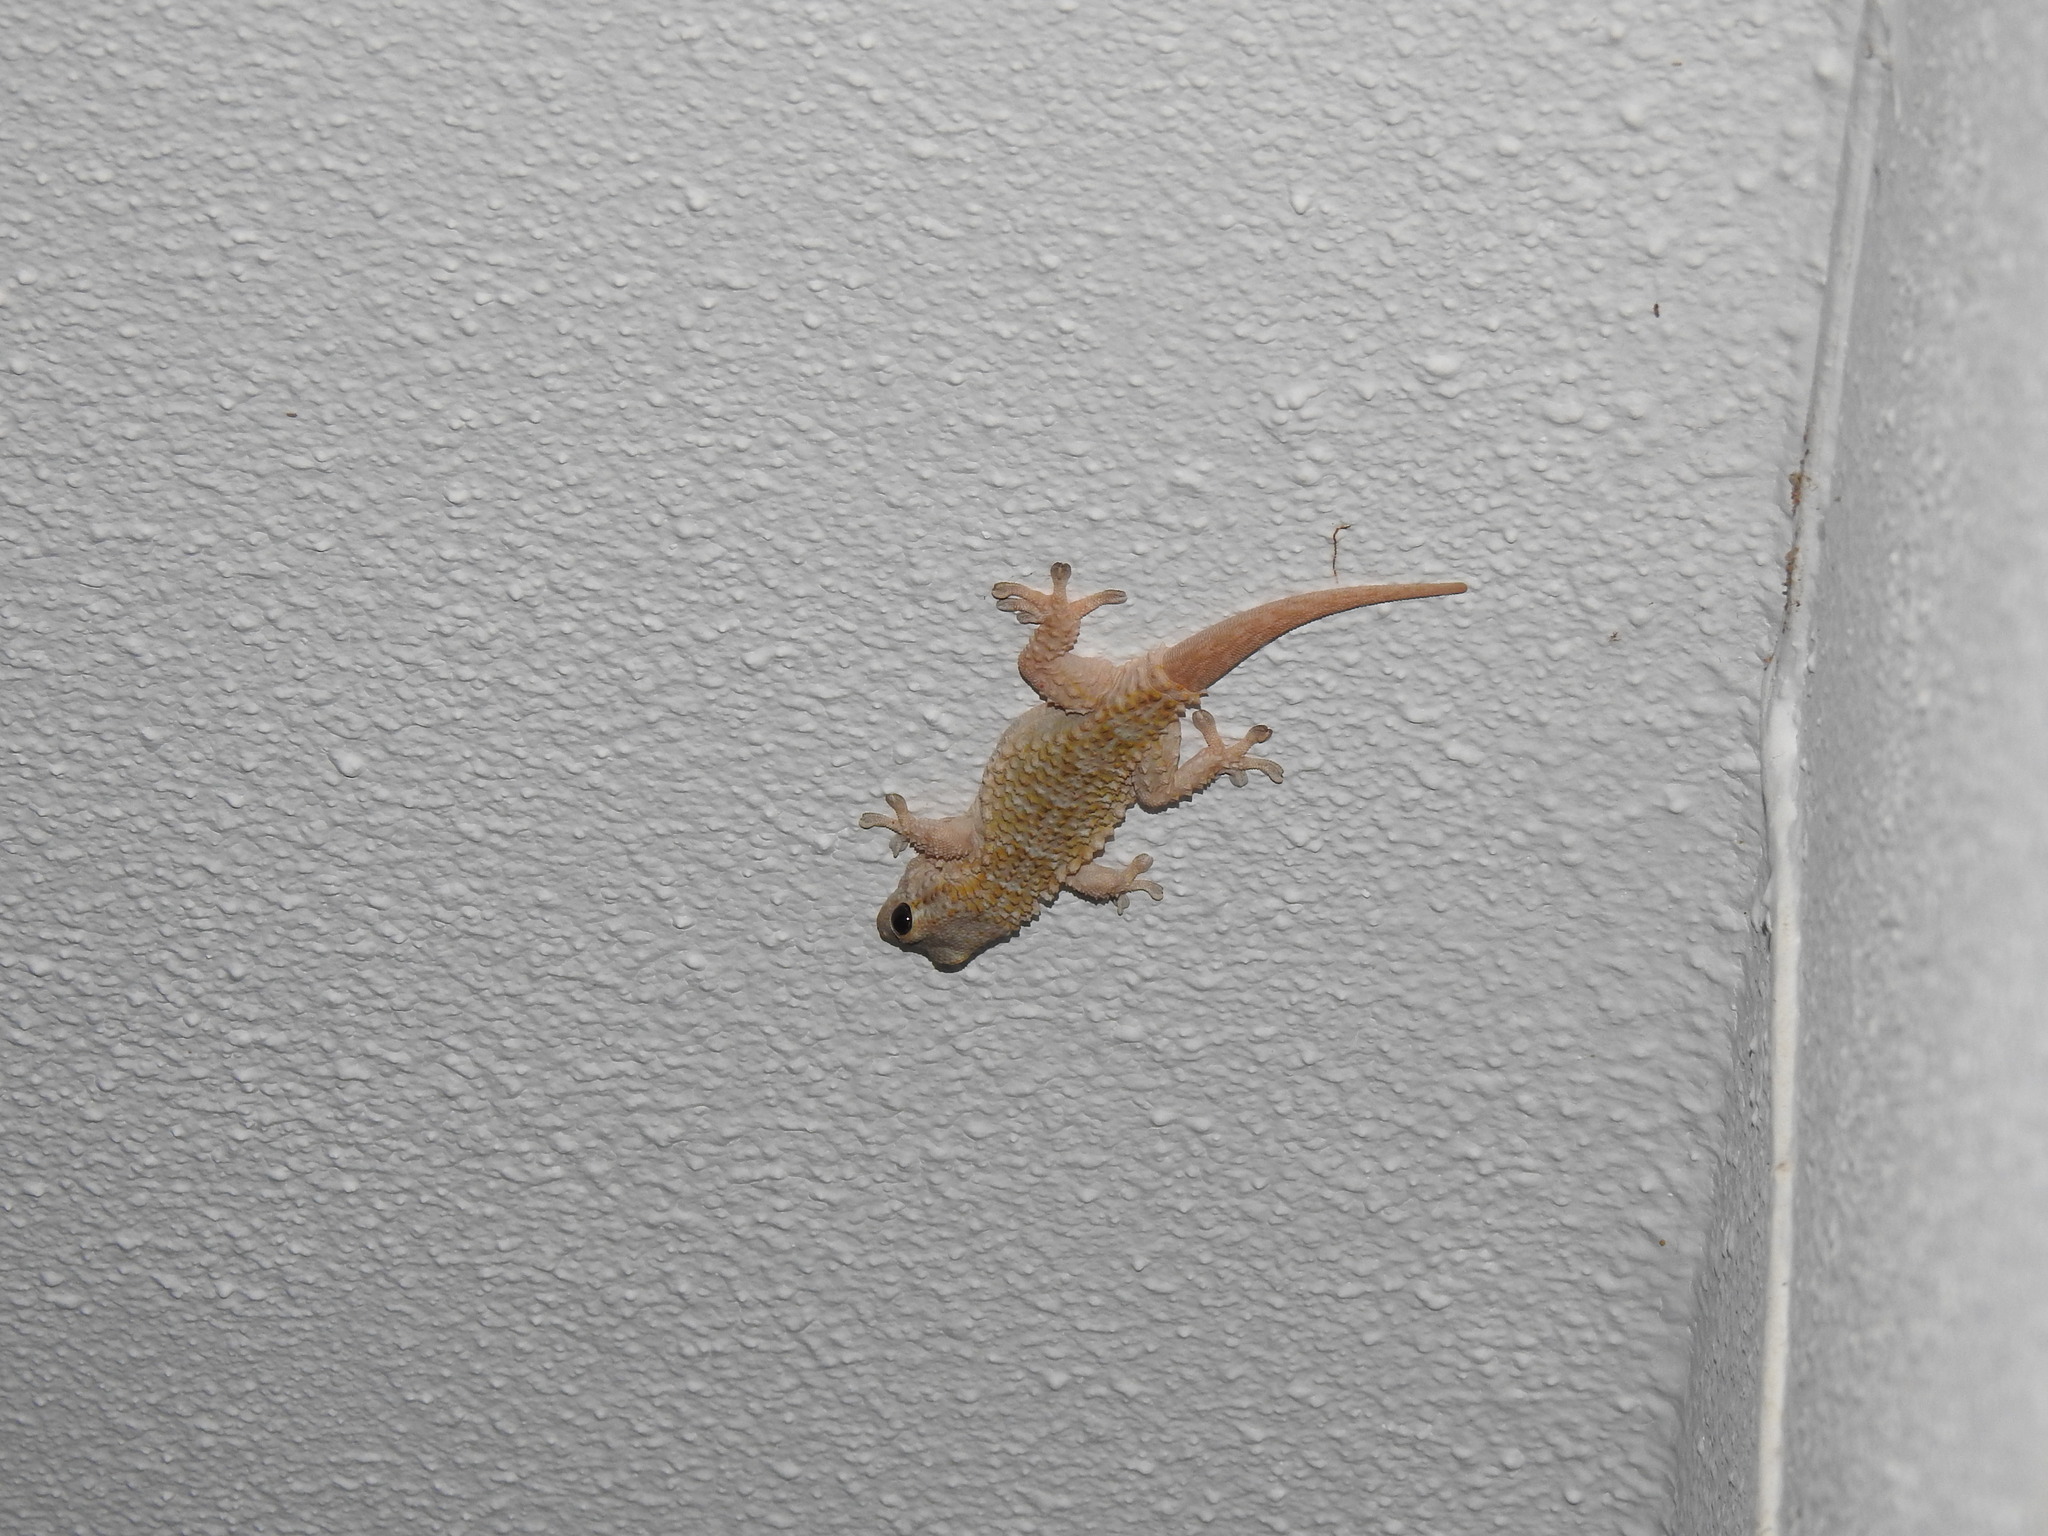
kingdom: Animalia
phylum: Chordata
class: Squamata
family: Phyllodactylidae
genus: Tarentola
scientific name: Tarentola mauritanica
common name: Moorish gecko
